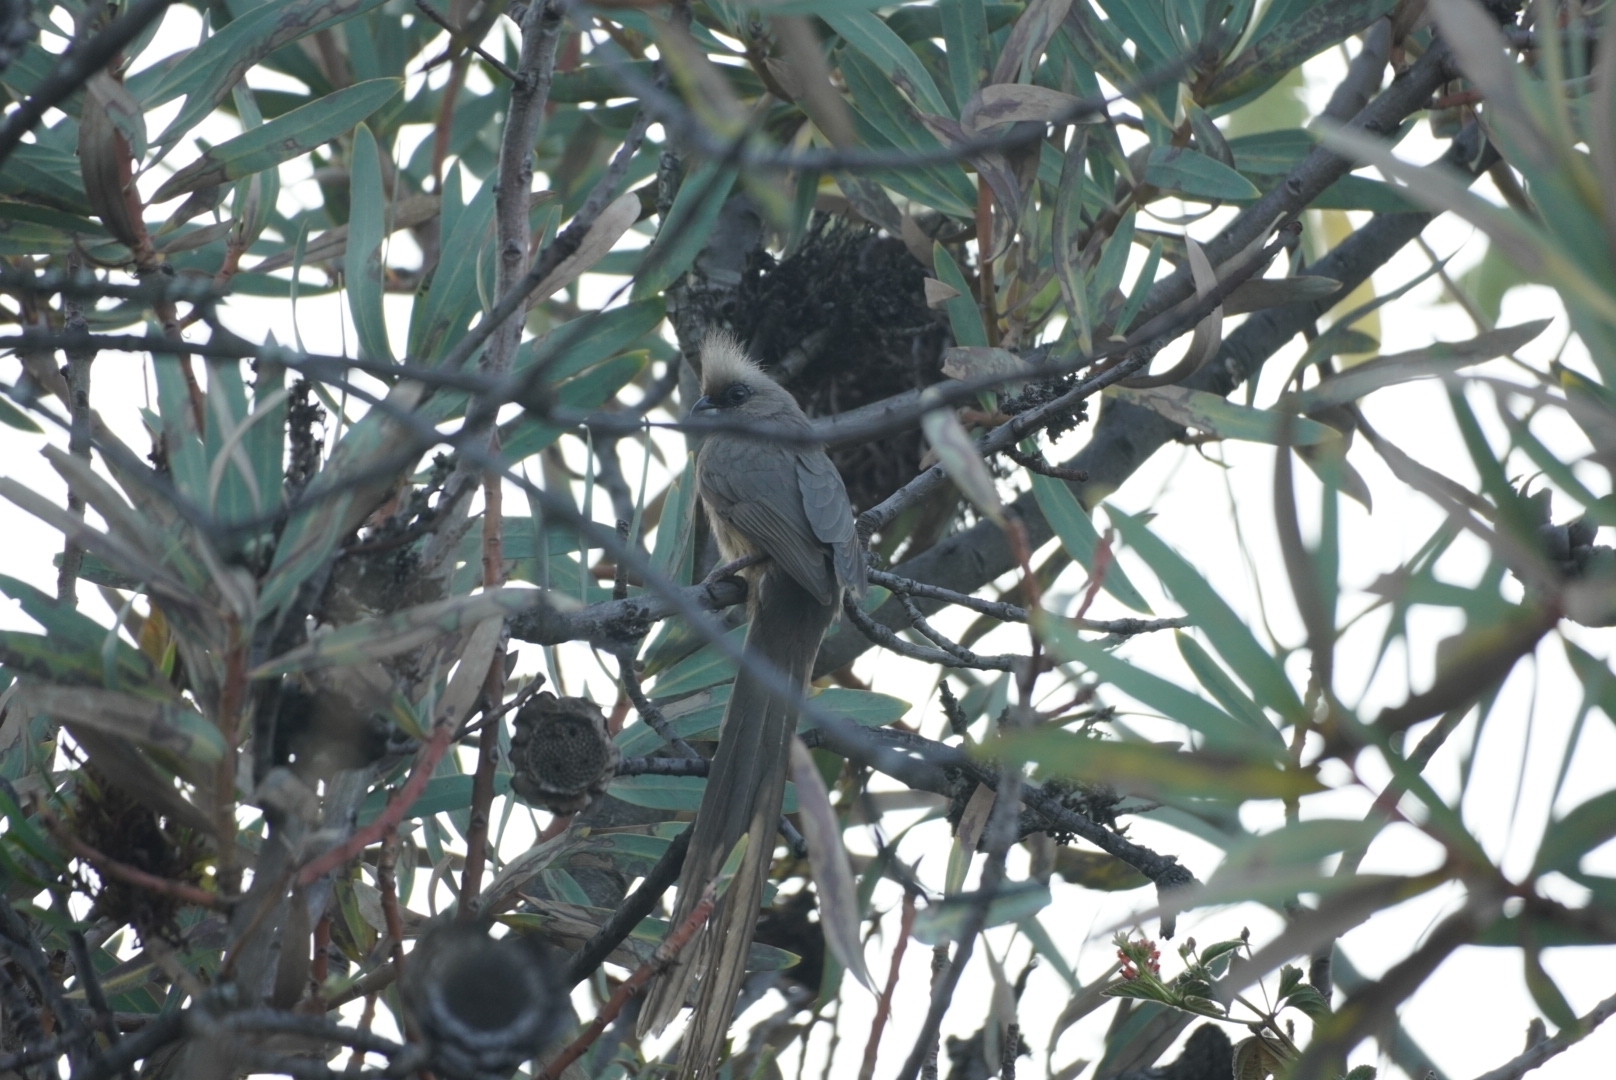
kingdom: Animalia
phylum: Chordata
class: Aves
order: Coliiformes
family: Coliidae
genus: Colius
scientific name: Colius striatus
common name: Speckled mousebird
